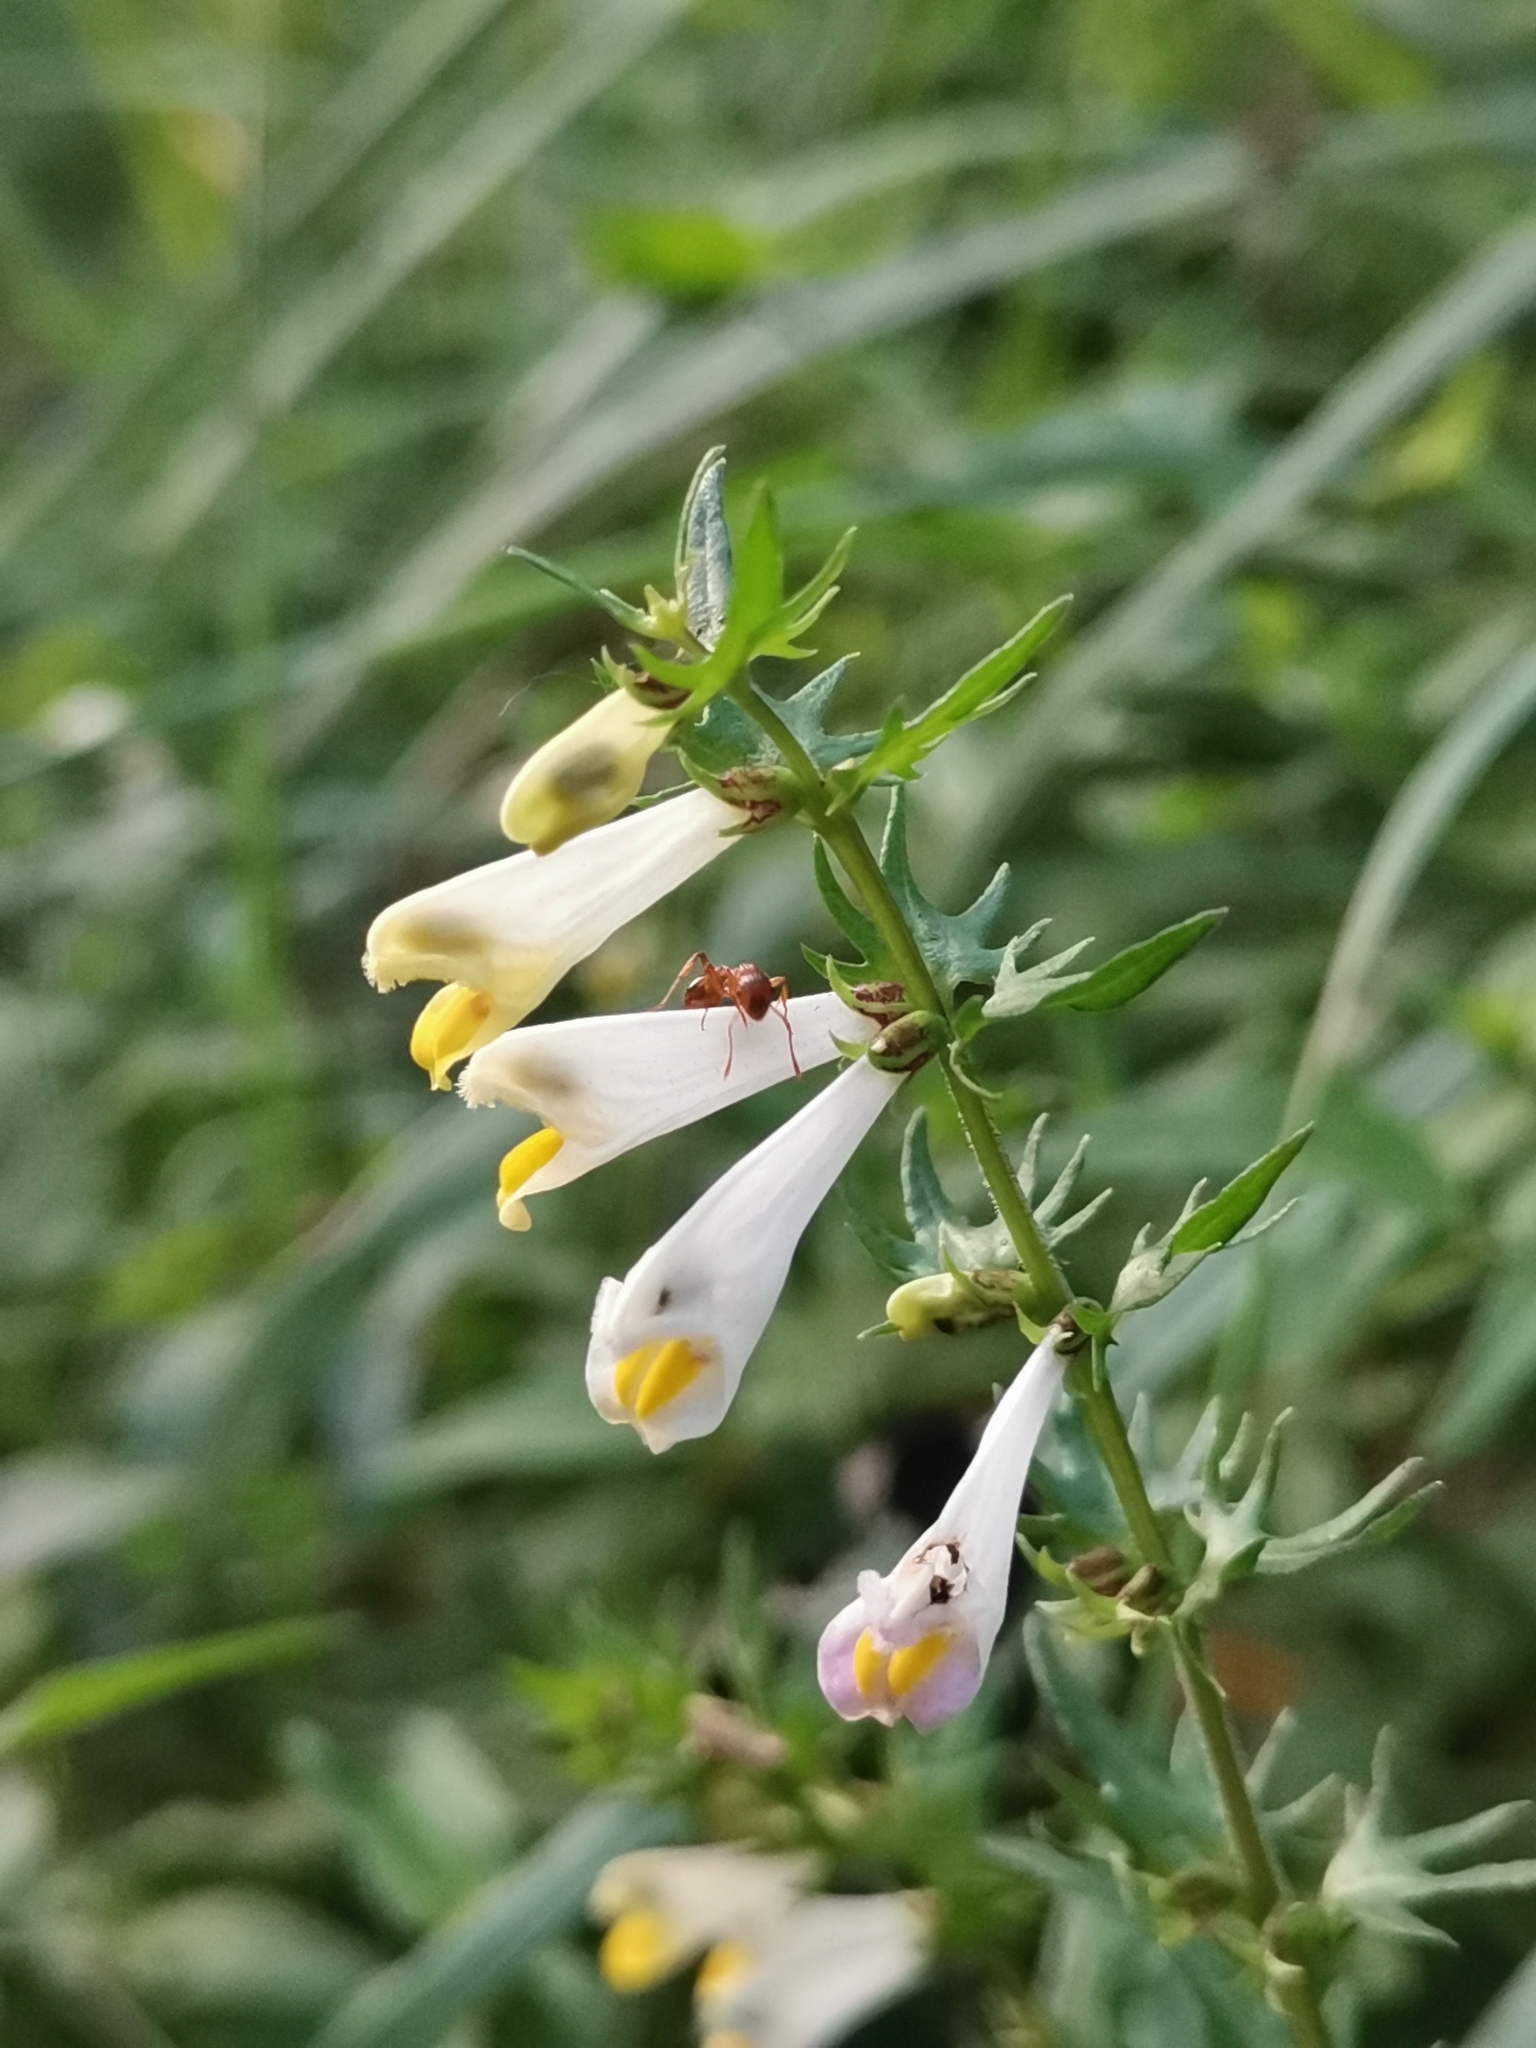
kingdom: Plantae
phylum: Tracheophyta
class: Magnoliopsida
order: Lamiales
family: Orobanchaceae
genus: Melampyrum
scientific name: Melampyrum pratense
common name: Common cow-wheat
